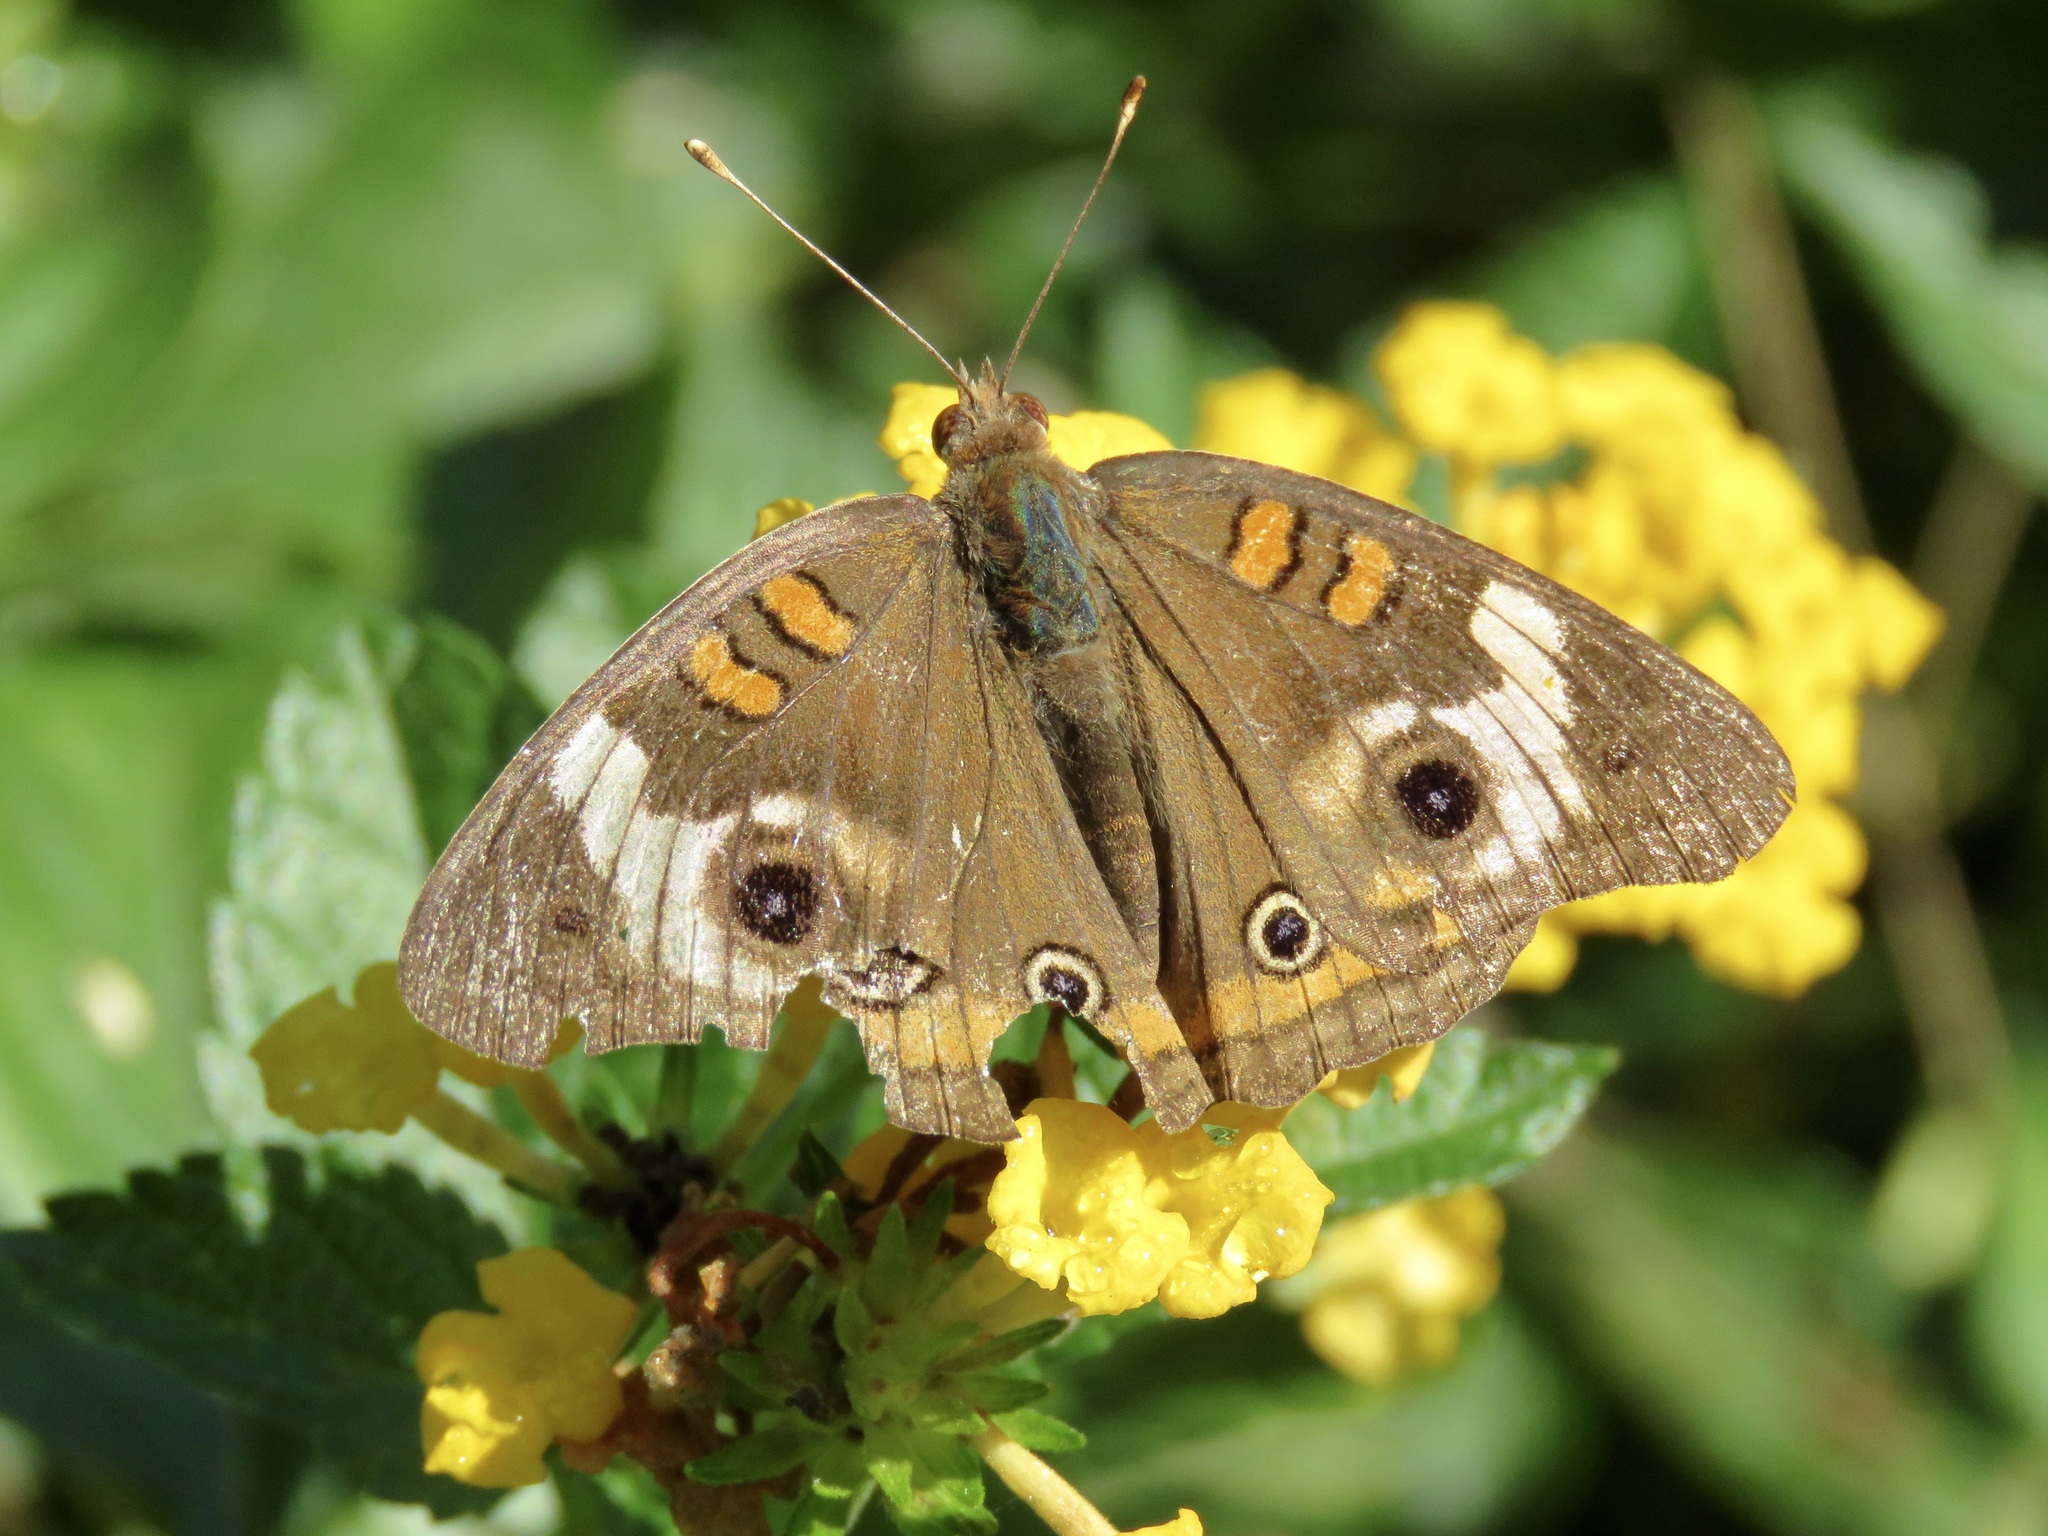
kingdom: Animalia
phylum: Arthropoda
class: Insecta
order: Lepidoptera
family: Nymphalidae
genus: Junonia
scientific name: Junonia coenia
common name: Common buckeye
